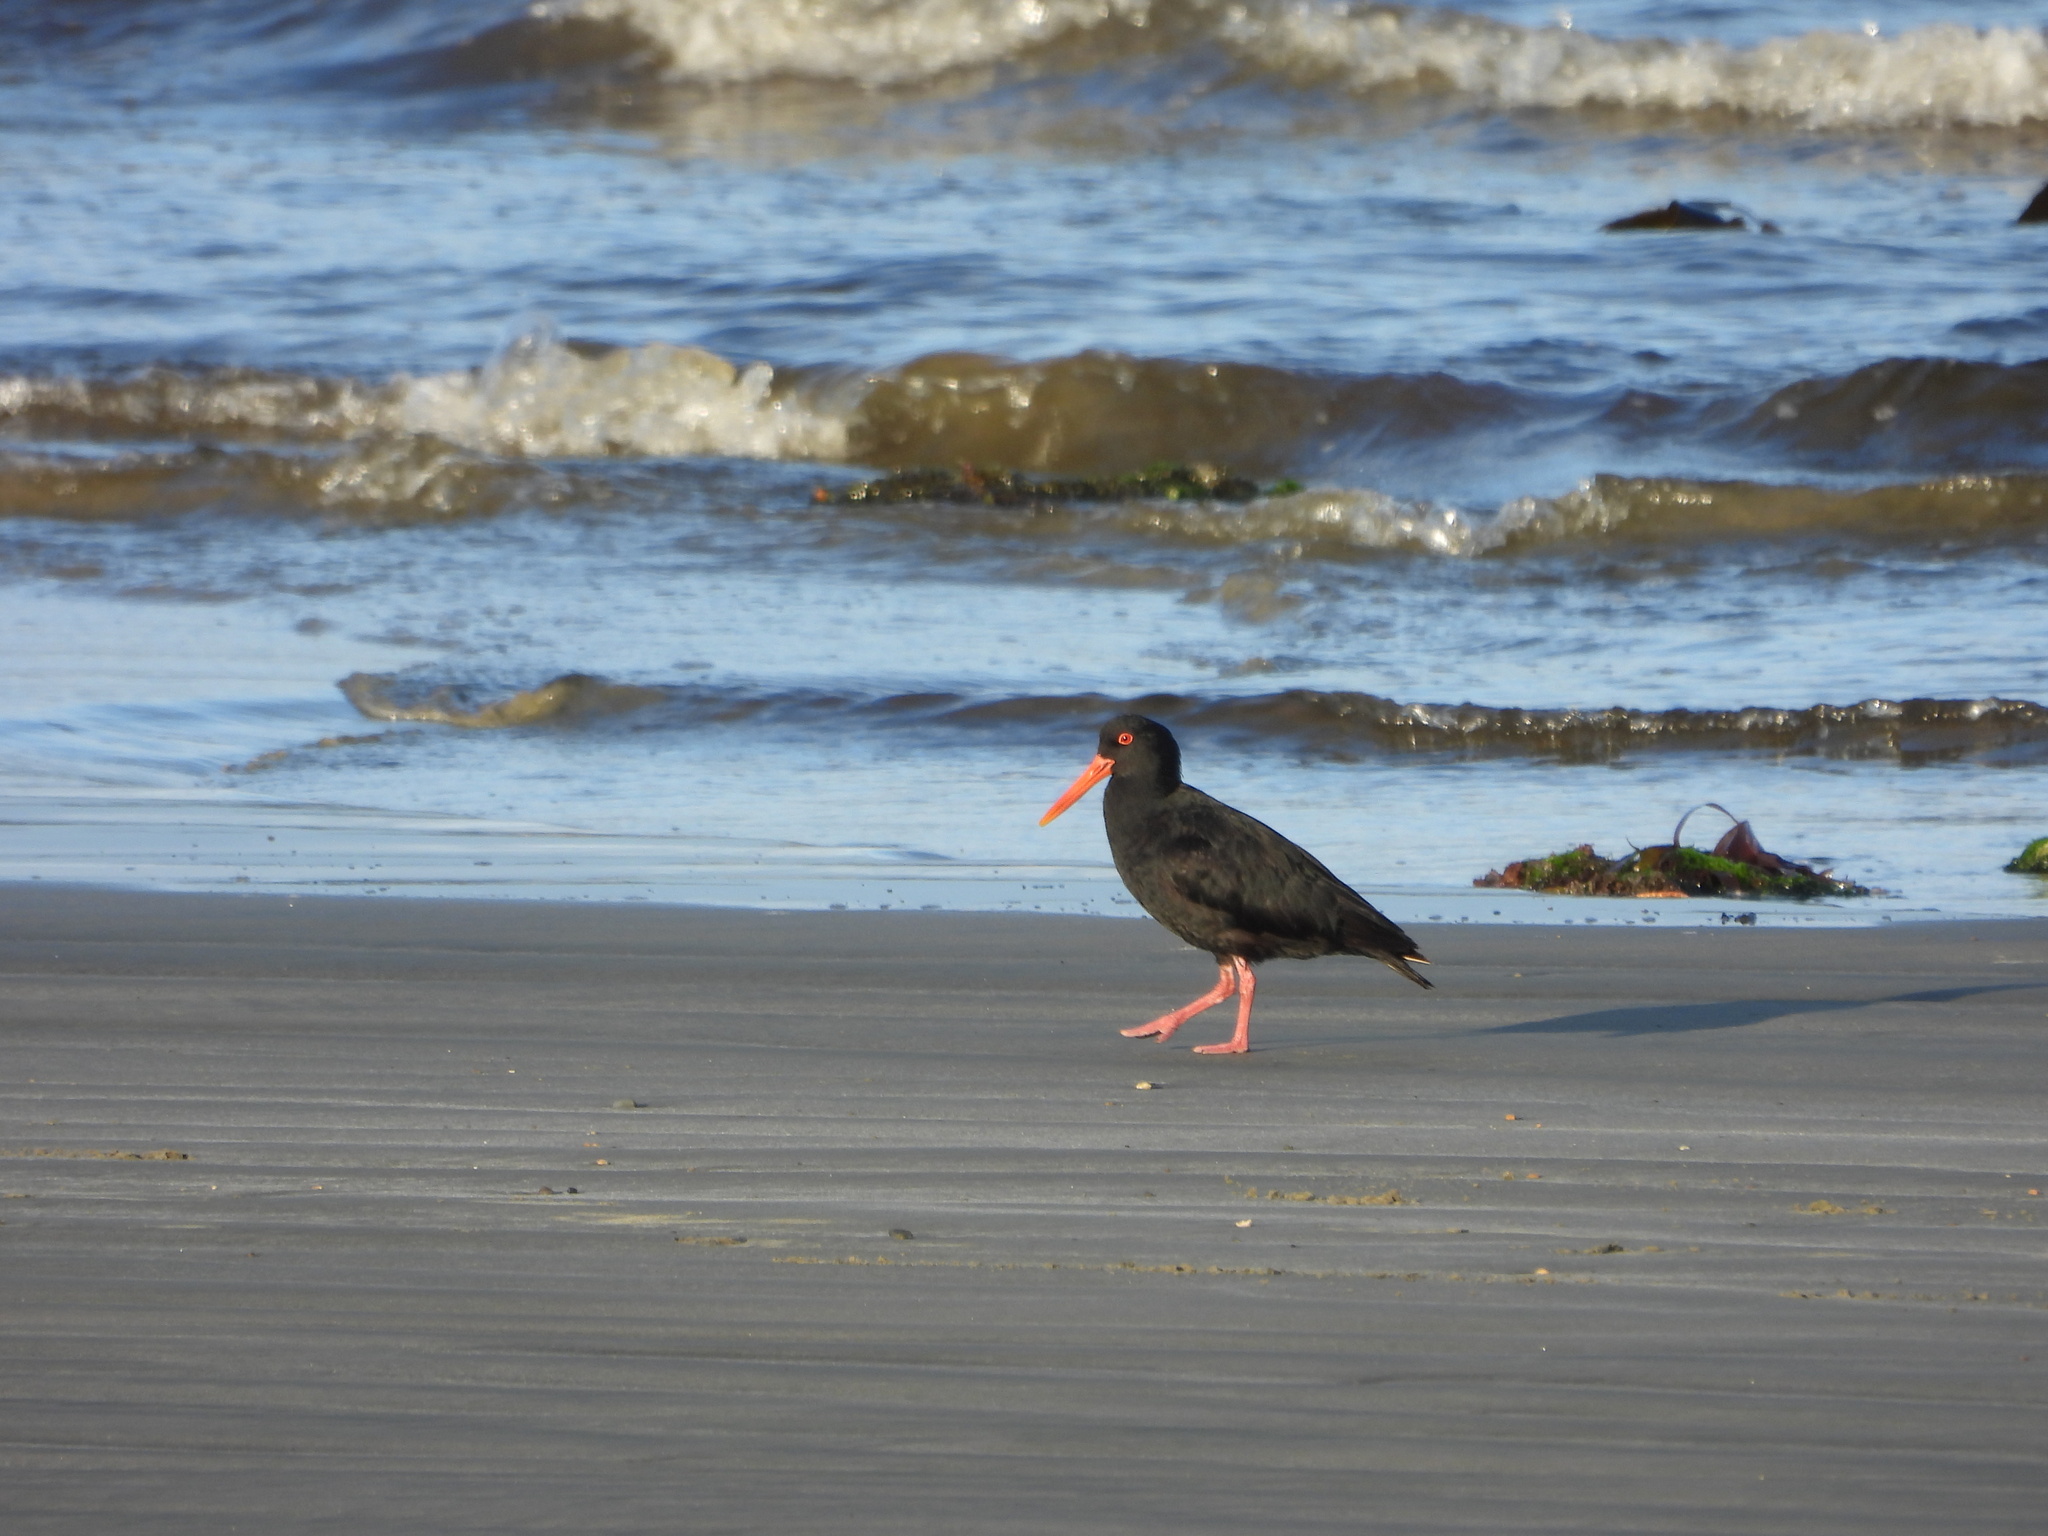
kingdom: Animalia
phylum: Chordata
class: Aves
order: Charadriiformes
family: Haematopodidae
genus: Haematopus
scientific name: Haematopus unicolor
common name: Variable oystercatcher
